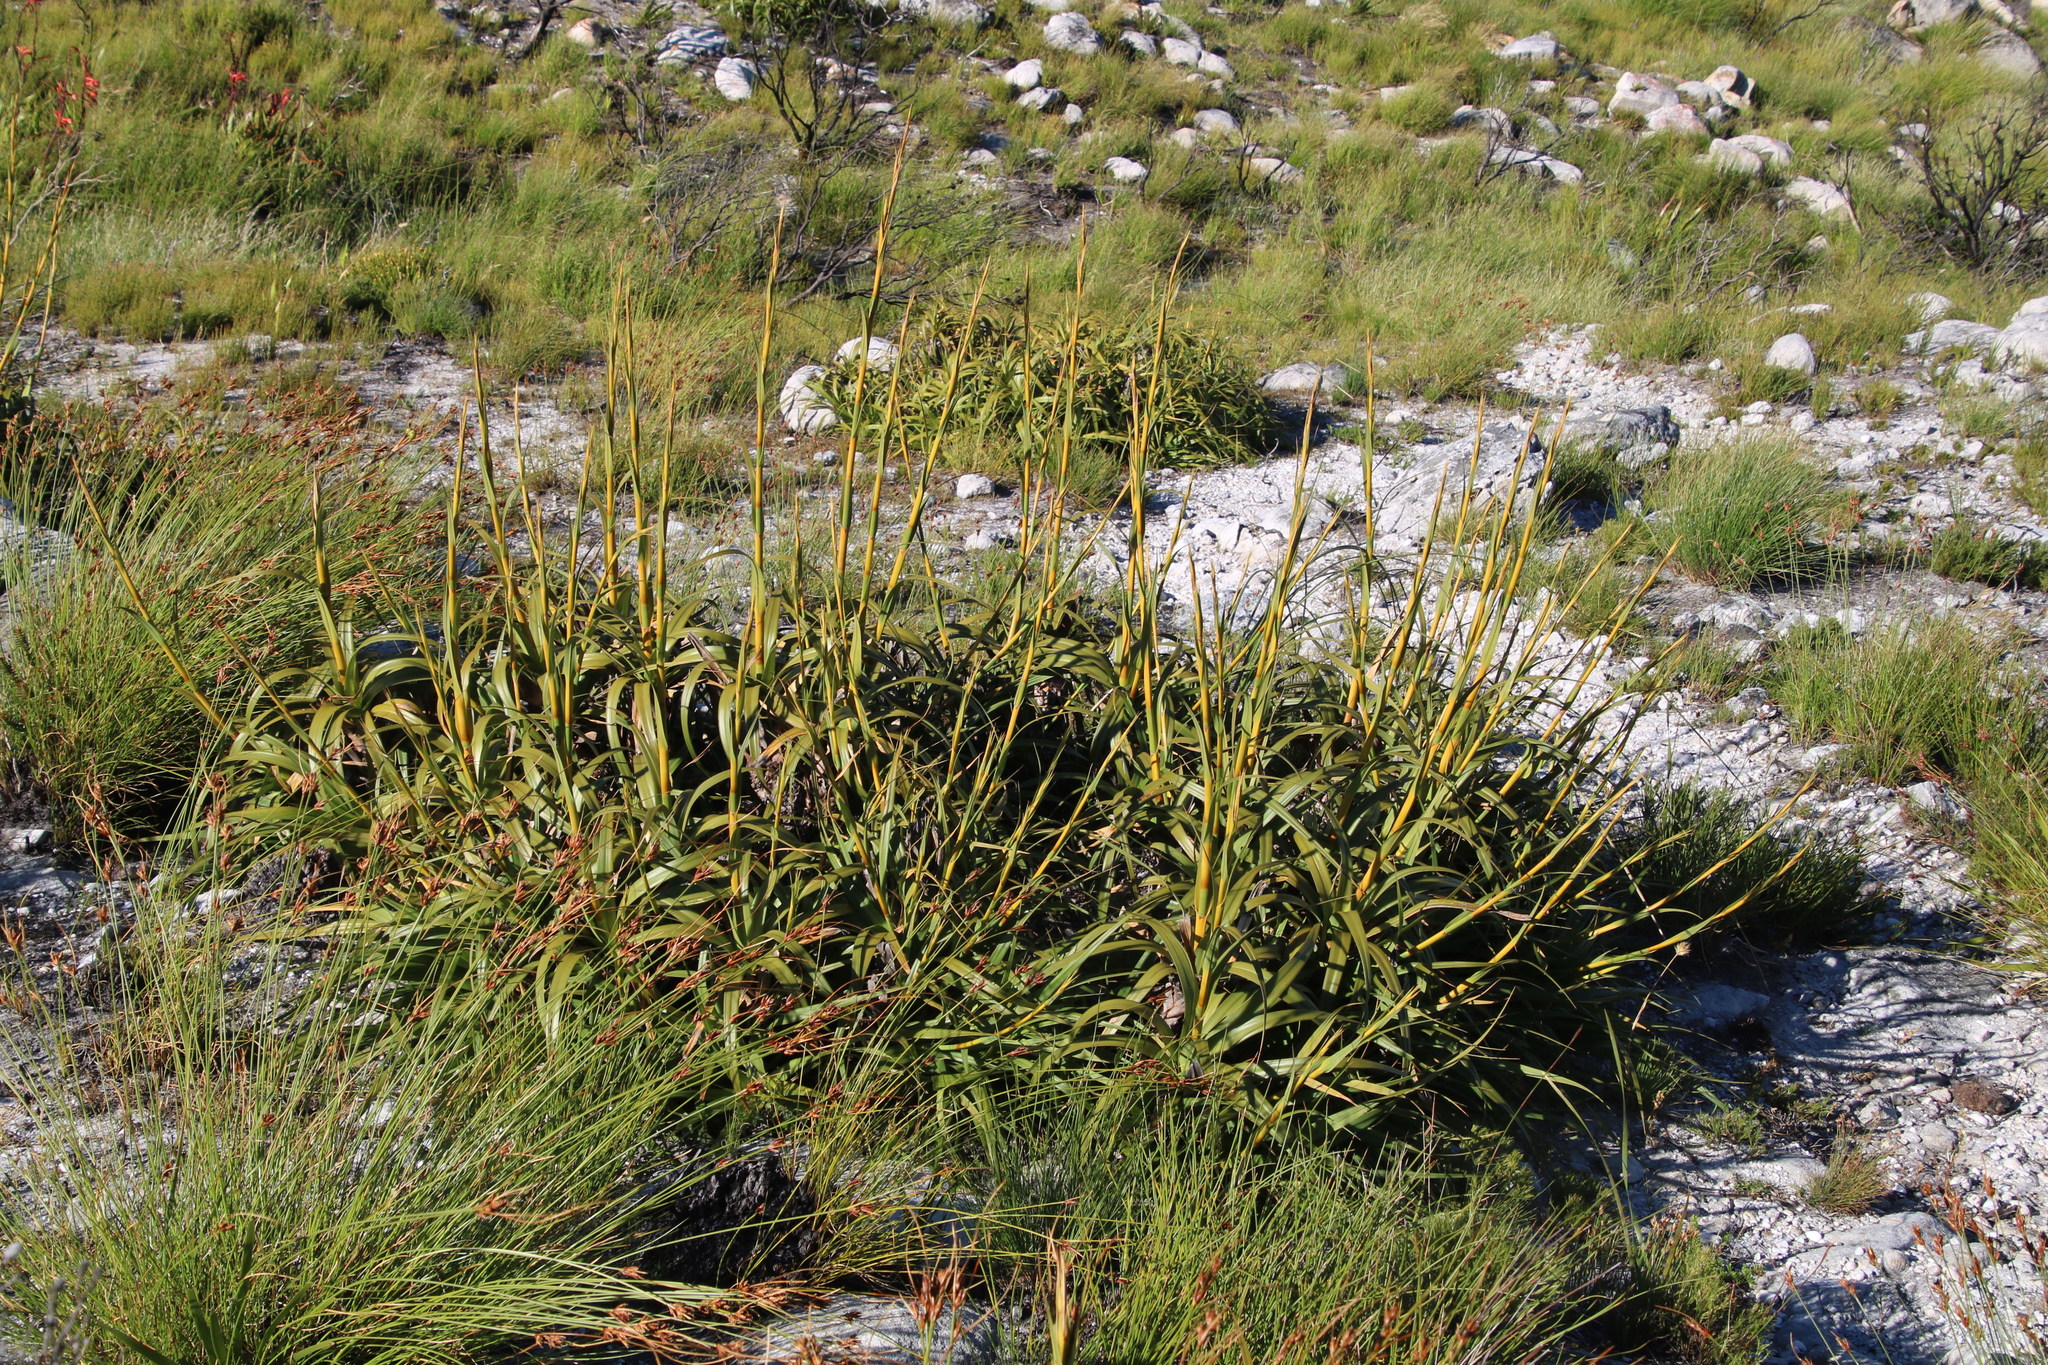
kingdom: Plantae
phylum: Tracheophyta
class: Liliopsida
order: Poales
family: Cyperaceae
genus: Tetraria
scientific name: Tetraria thermalis
